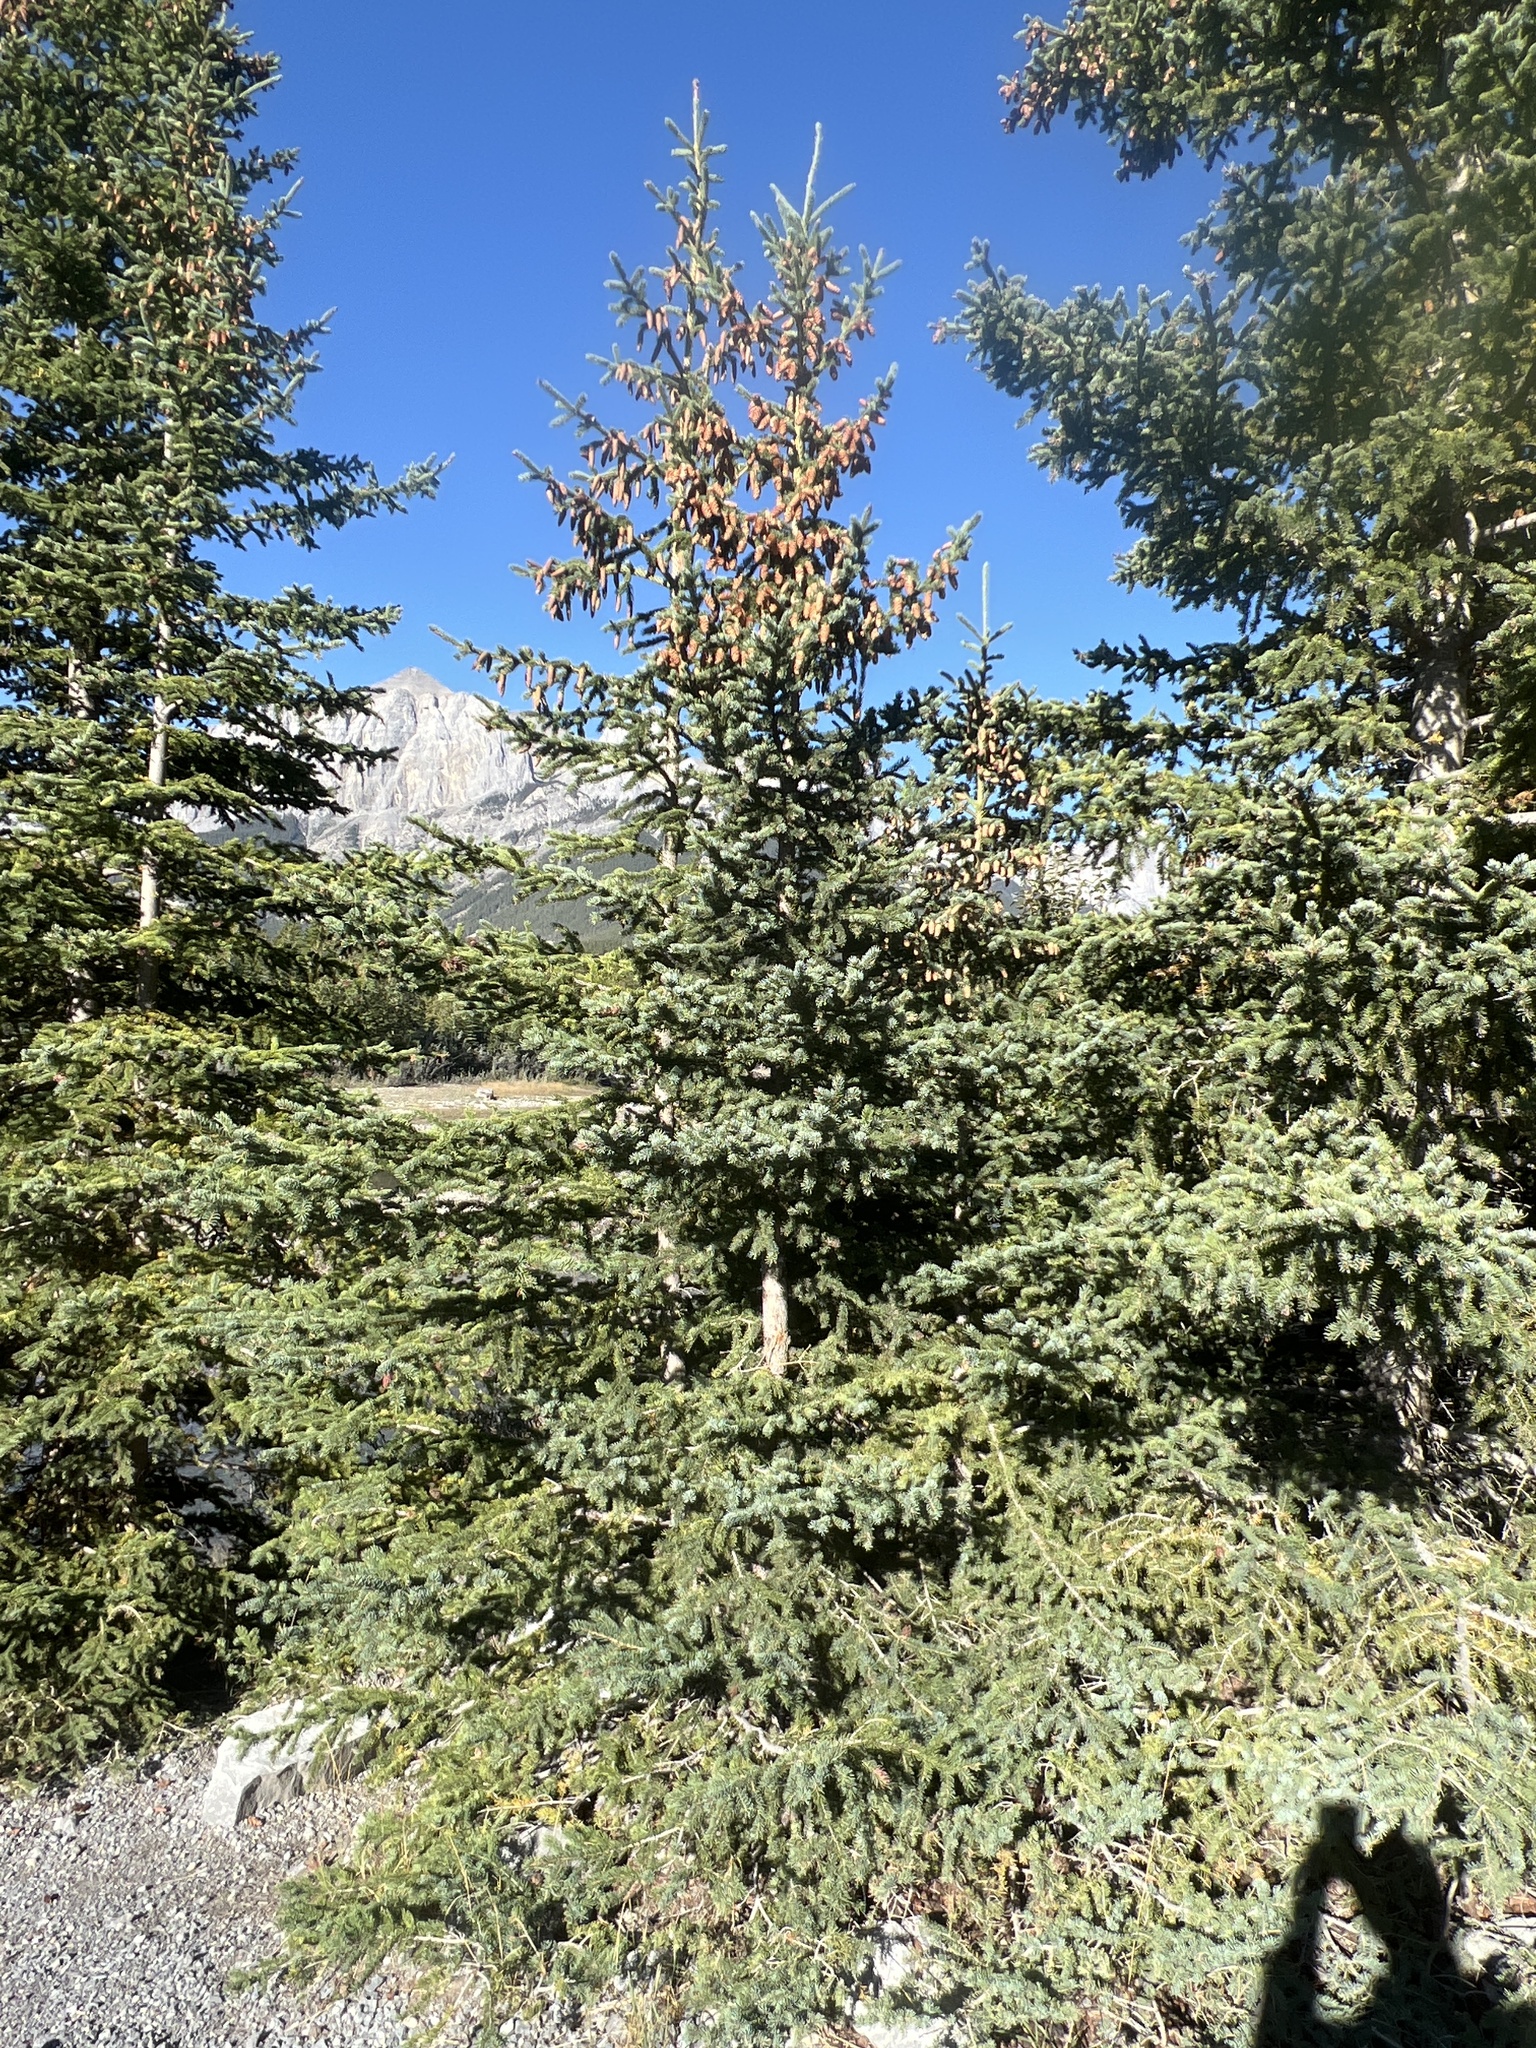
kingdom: Plantae
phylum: Tracheophyta
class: Pinopsida
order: Pinales
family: Pinaceae
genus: Picea
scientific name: Picea glauca
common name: White spruce
